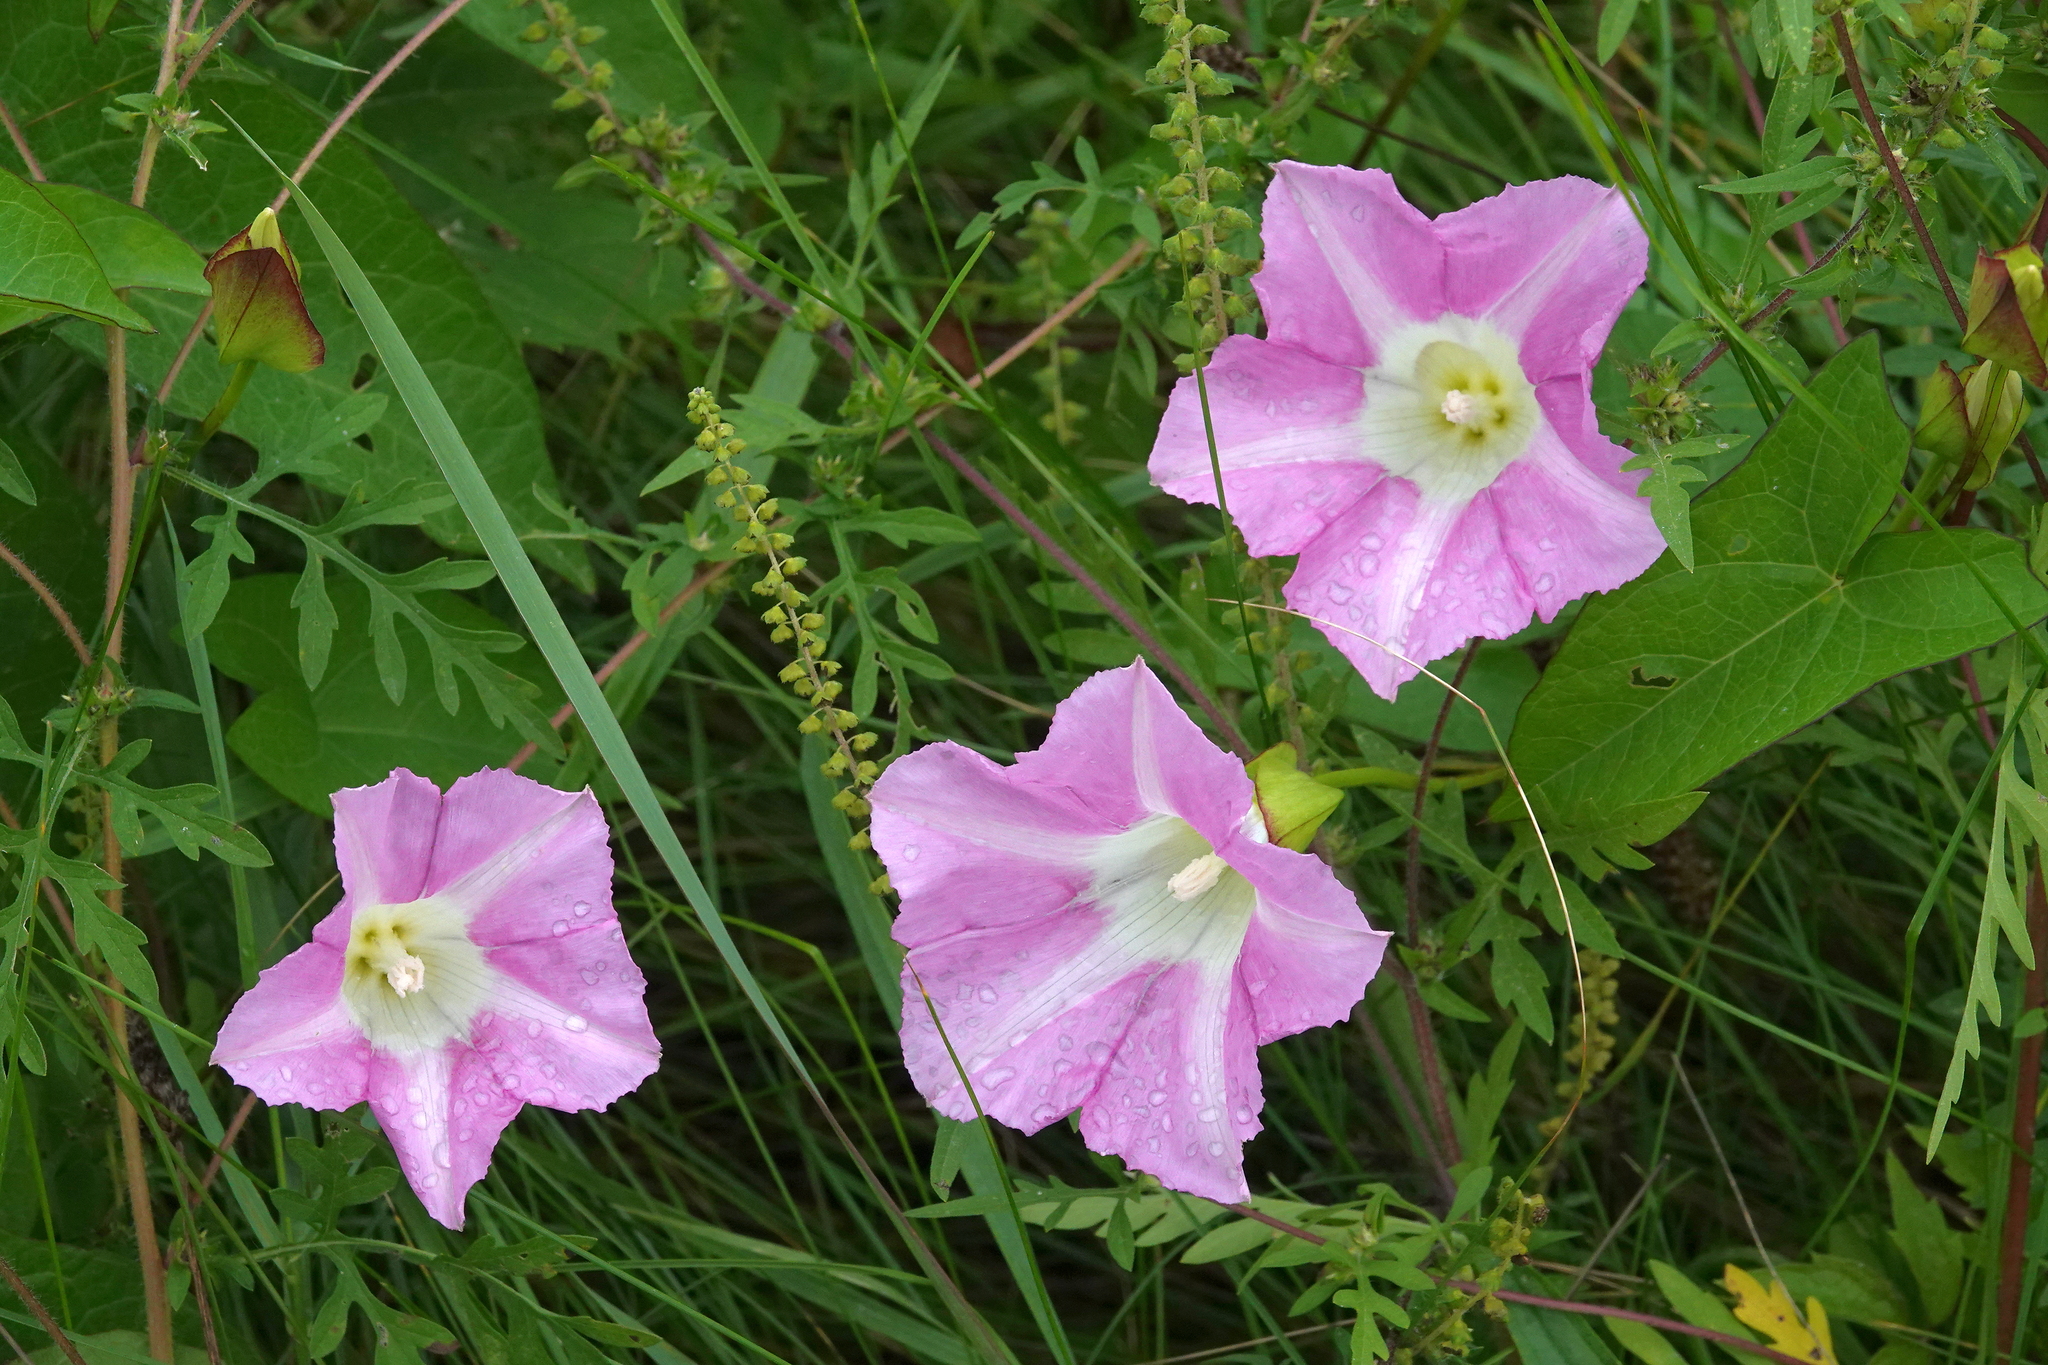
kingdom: Plantae
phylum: Tracheophyta
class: Magnoliopsida
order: Solanales
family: Convolvulaceae
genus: Calystegia
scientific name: Calystegia sepium
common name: Hedge bindweed
